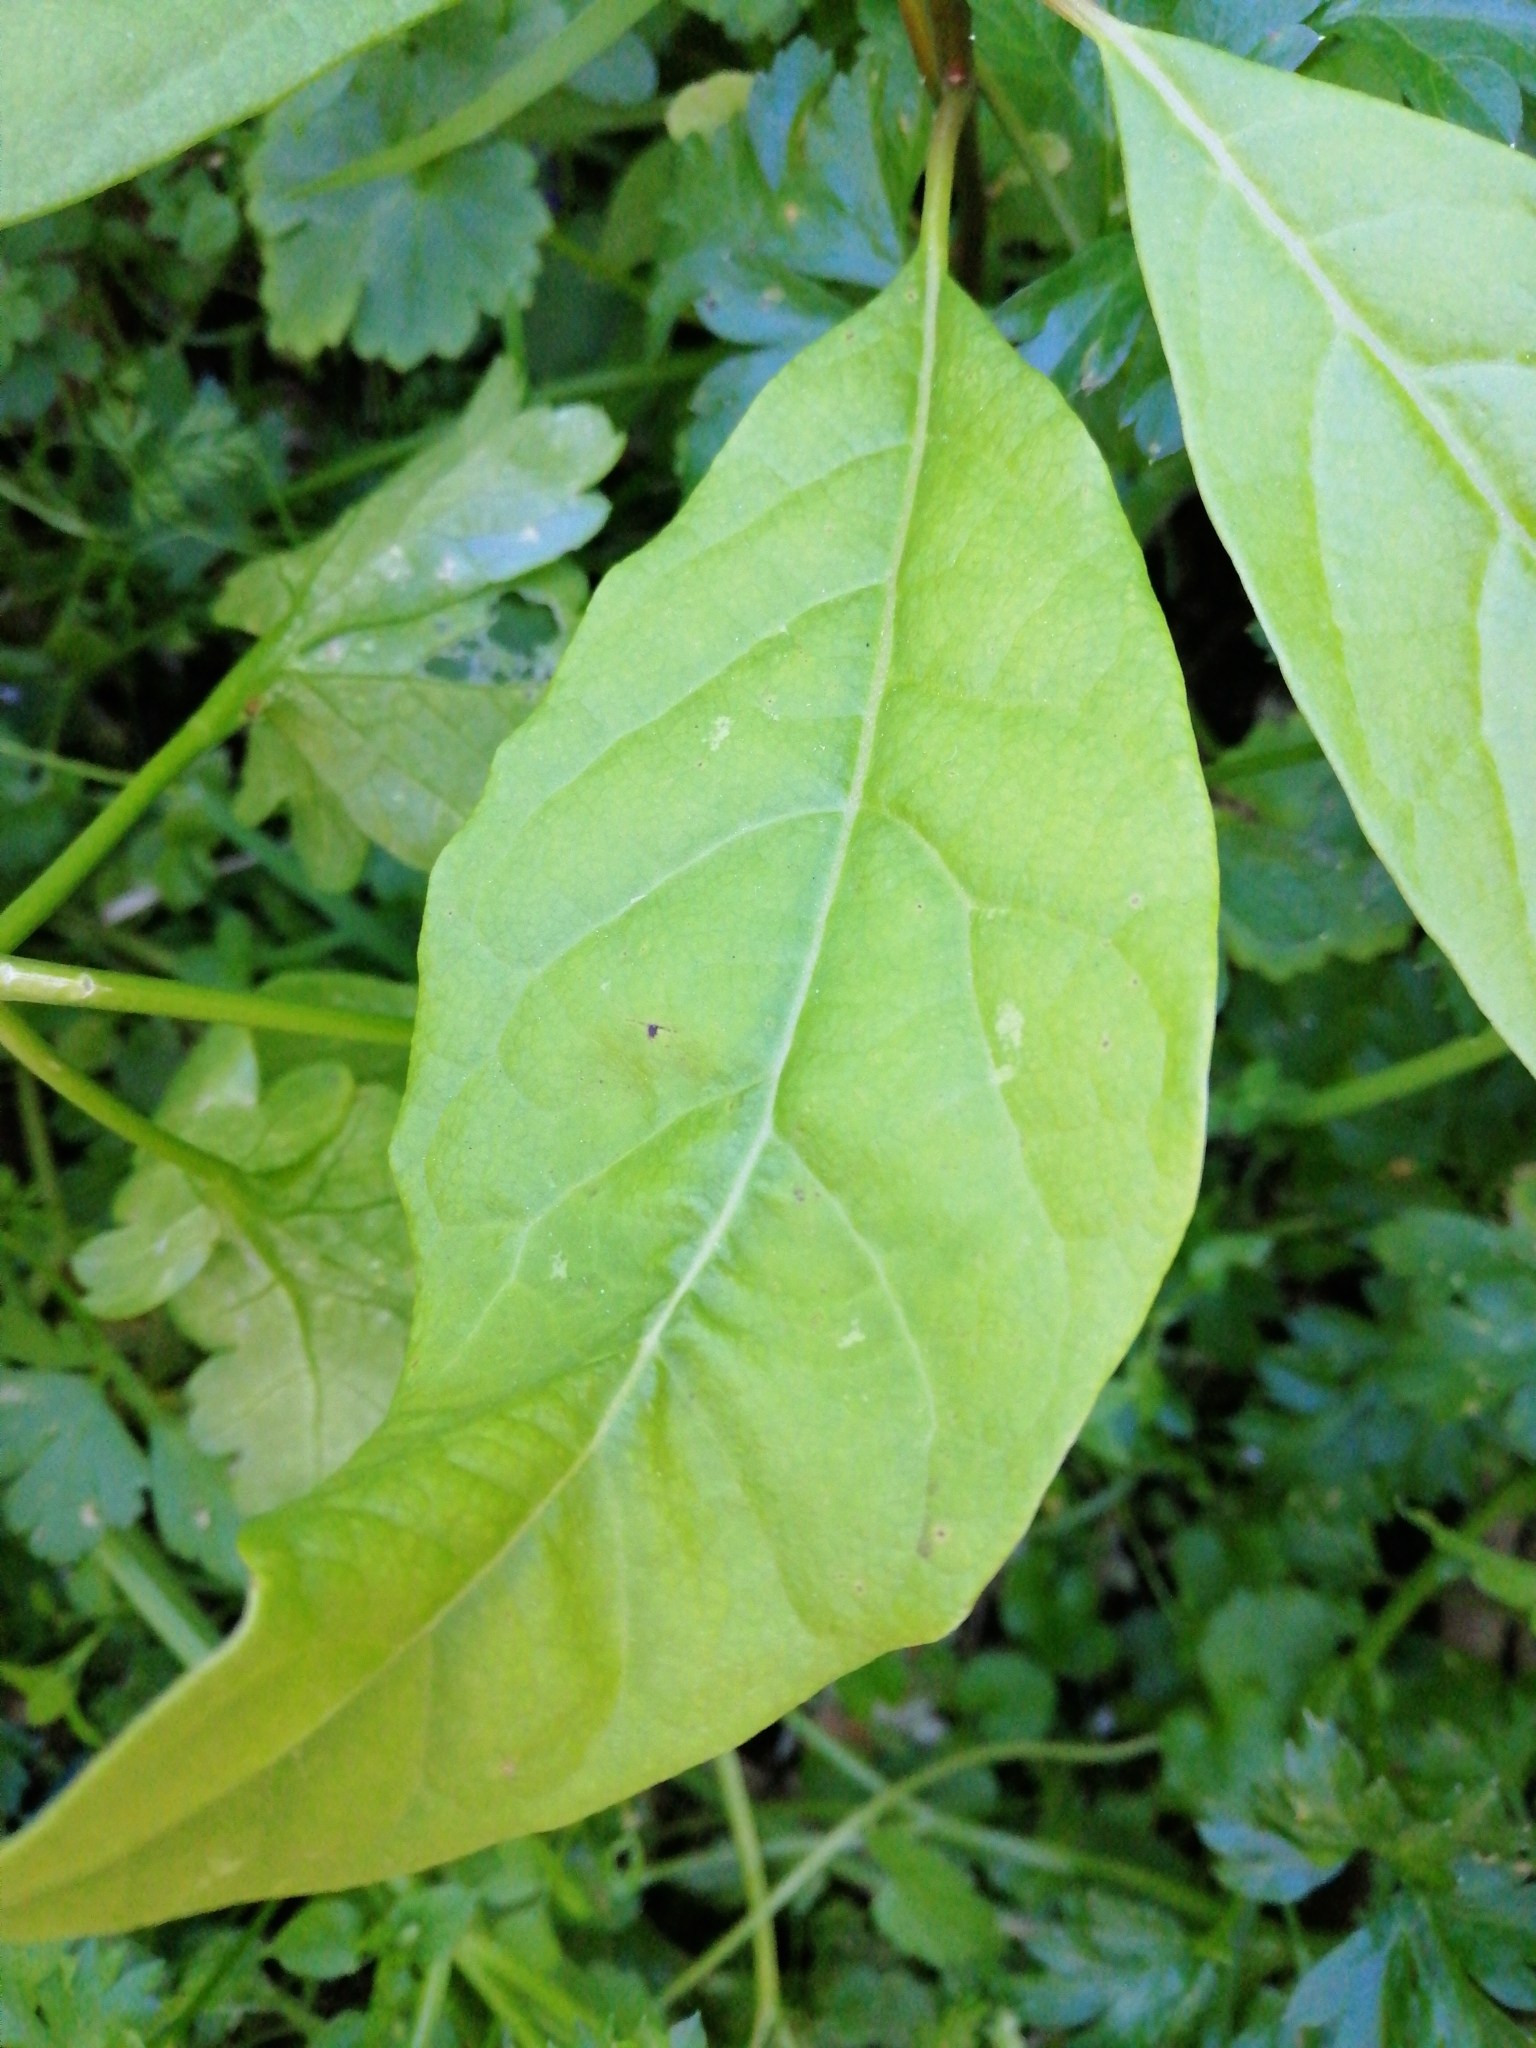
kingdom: Plantae
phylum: Tracheophyta
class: Magnoliopsida
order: Laurales
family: Lauraceae
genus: Persea
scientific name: Persea americana
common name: Avocado
